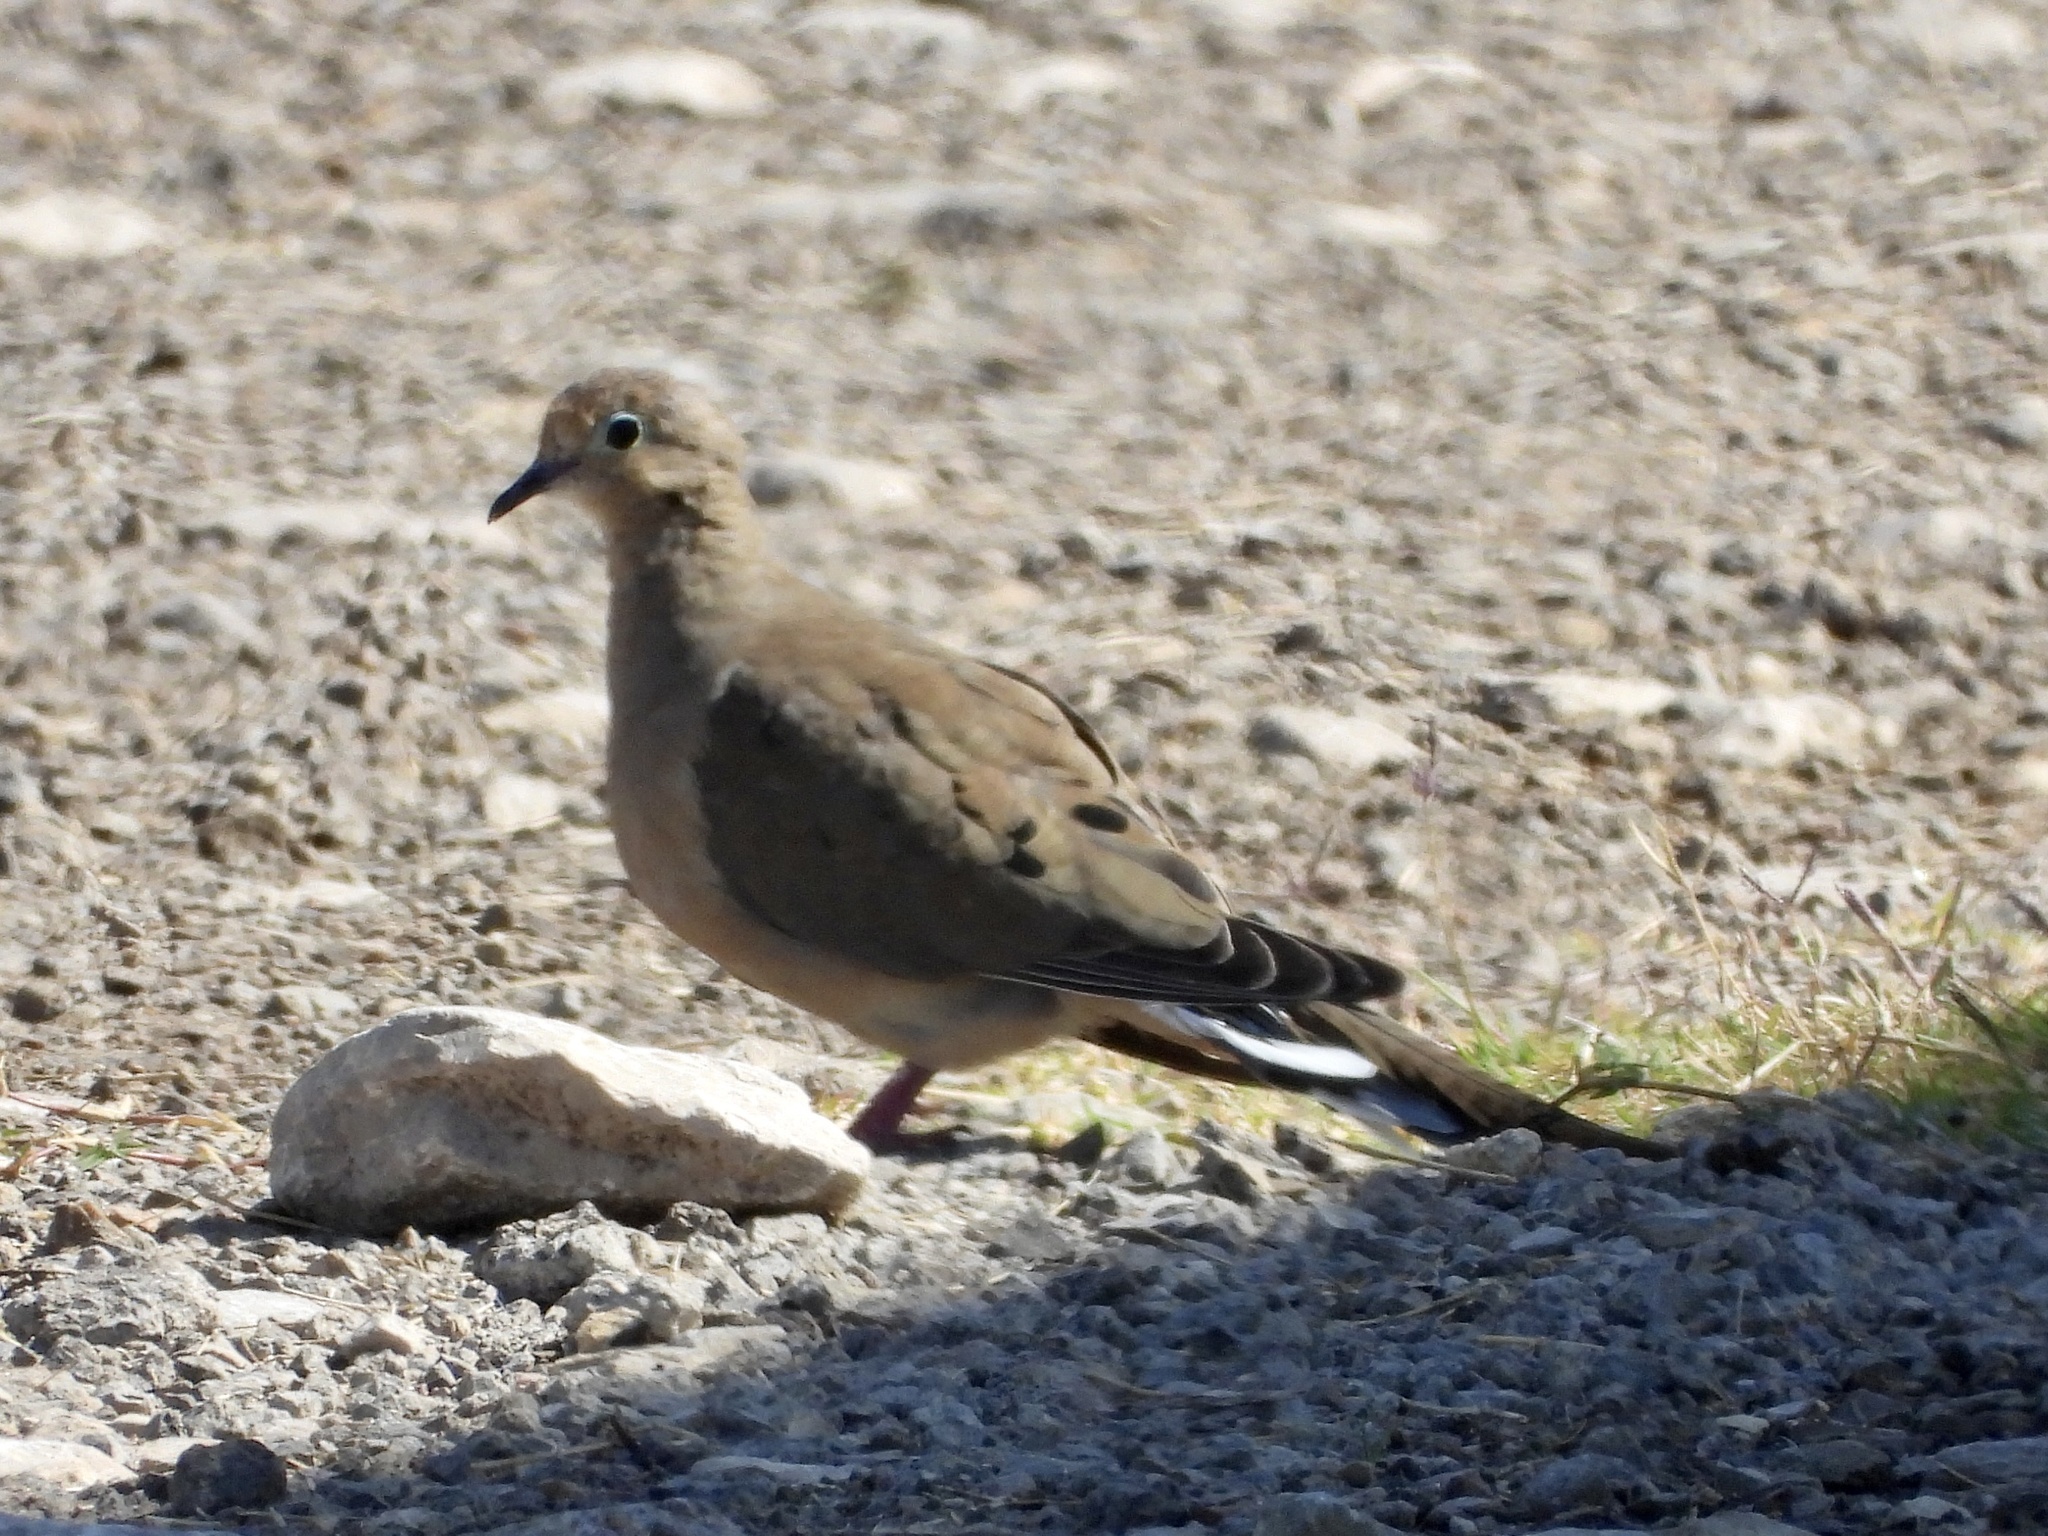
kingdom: Animalia
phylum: Chordata
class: Aves
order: Columbiformes
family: Columbidae
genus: Zenaida
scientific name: Zenaida macroura
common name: Mourning dove
